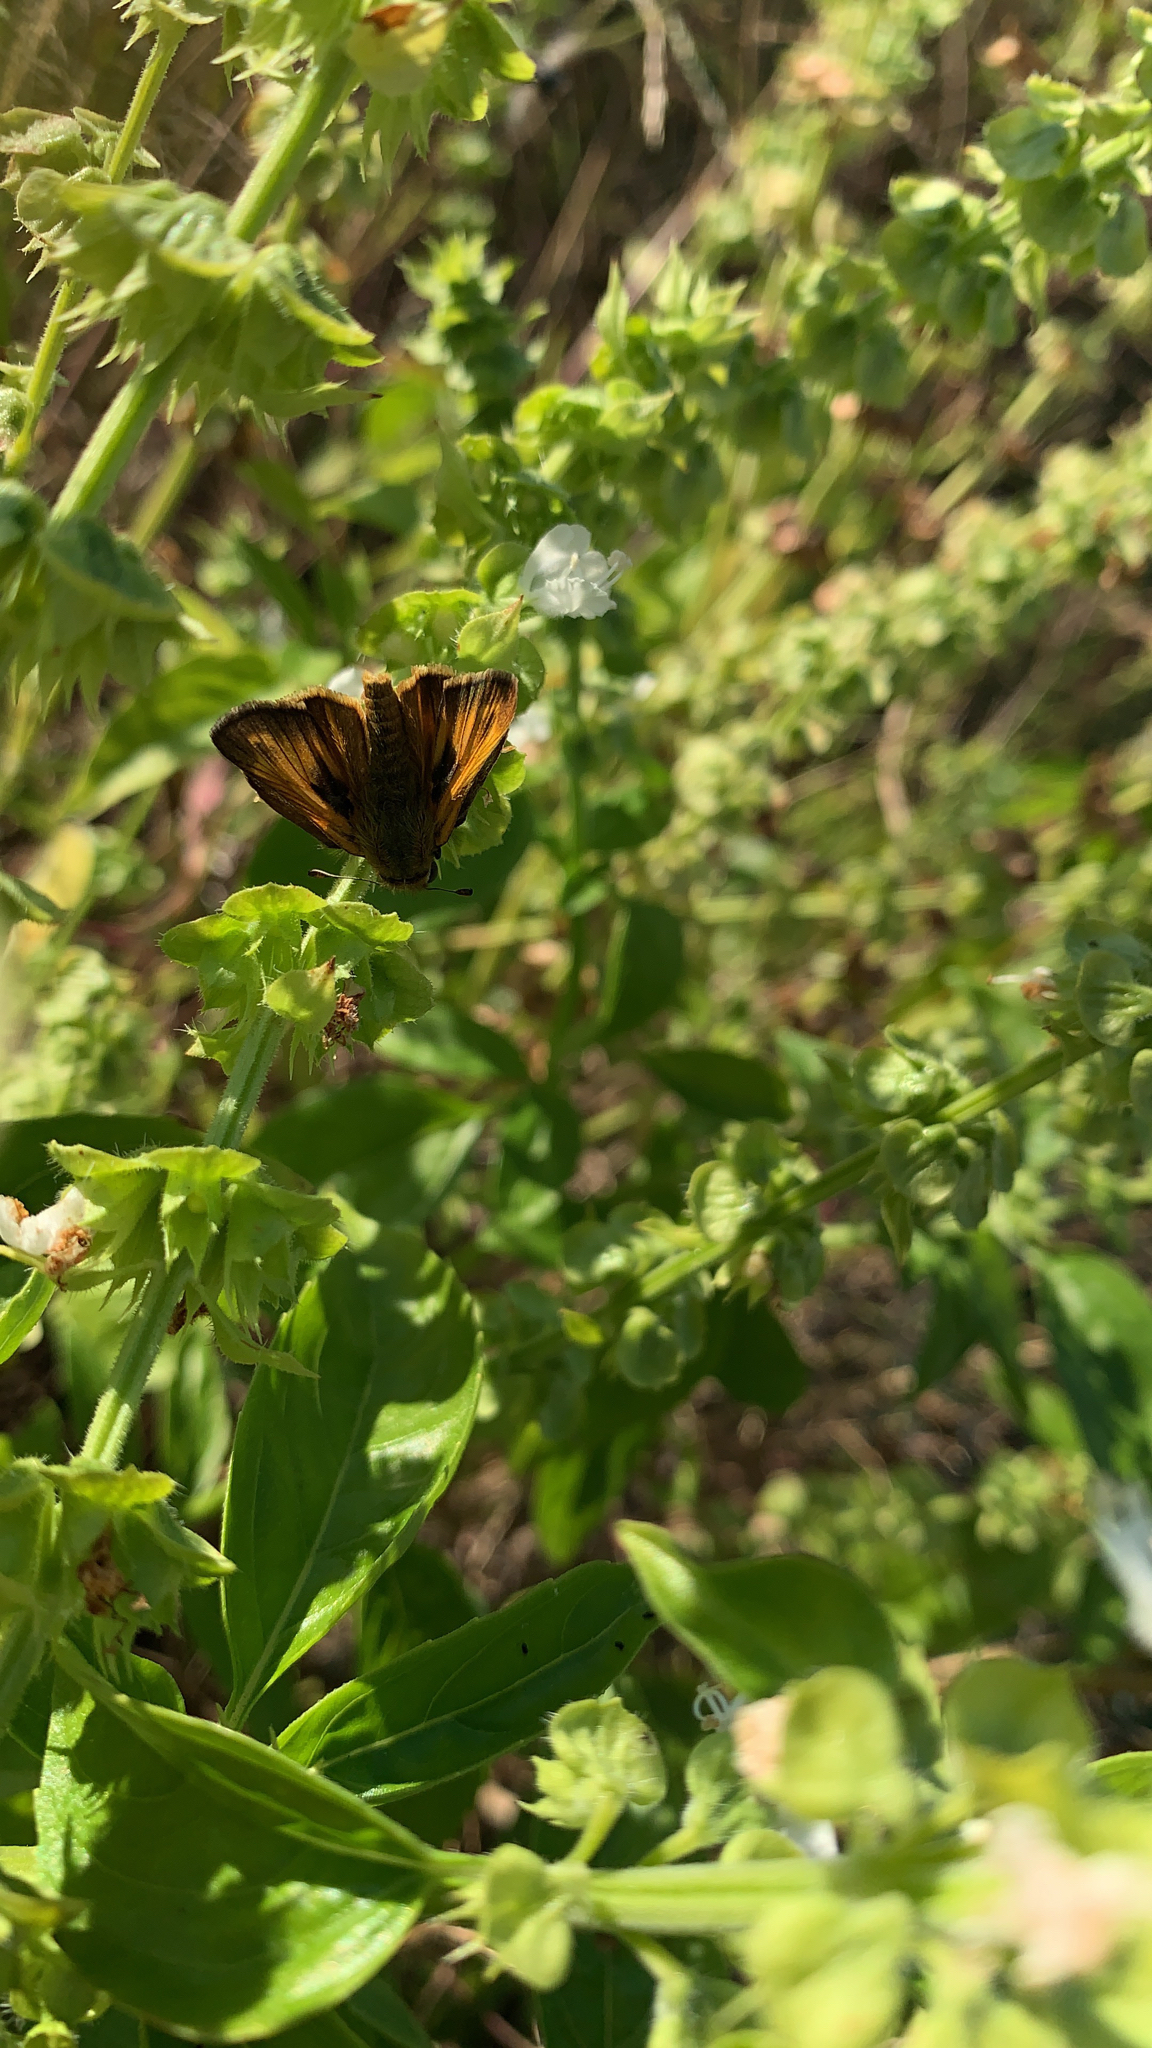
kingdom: Animalia
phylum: Arthropoda
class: Insecta
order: Lepidoptera
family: Hesperiidae
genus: Atalopedes
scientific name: Atalopedes
